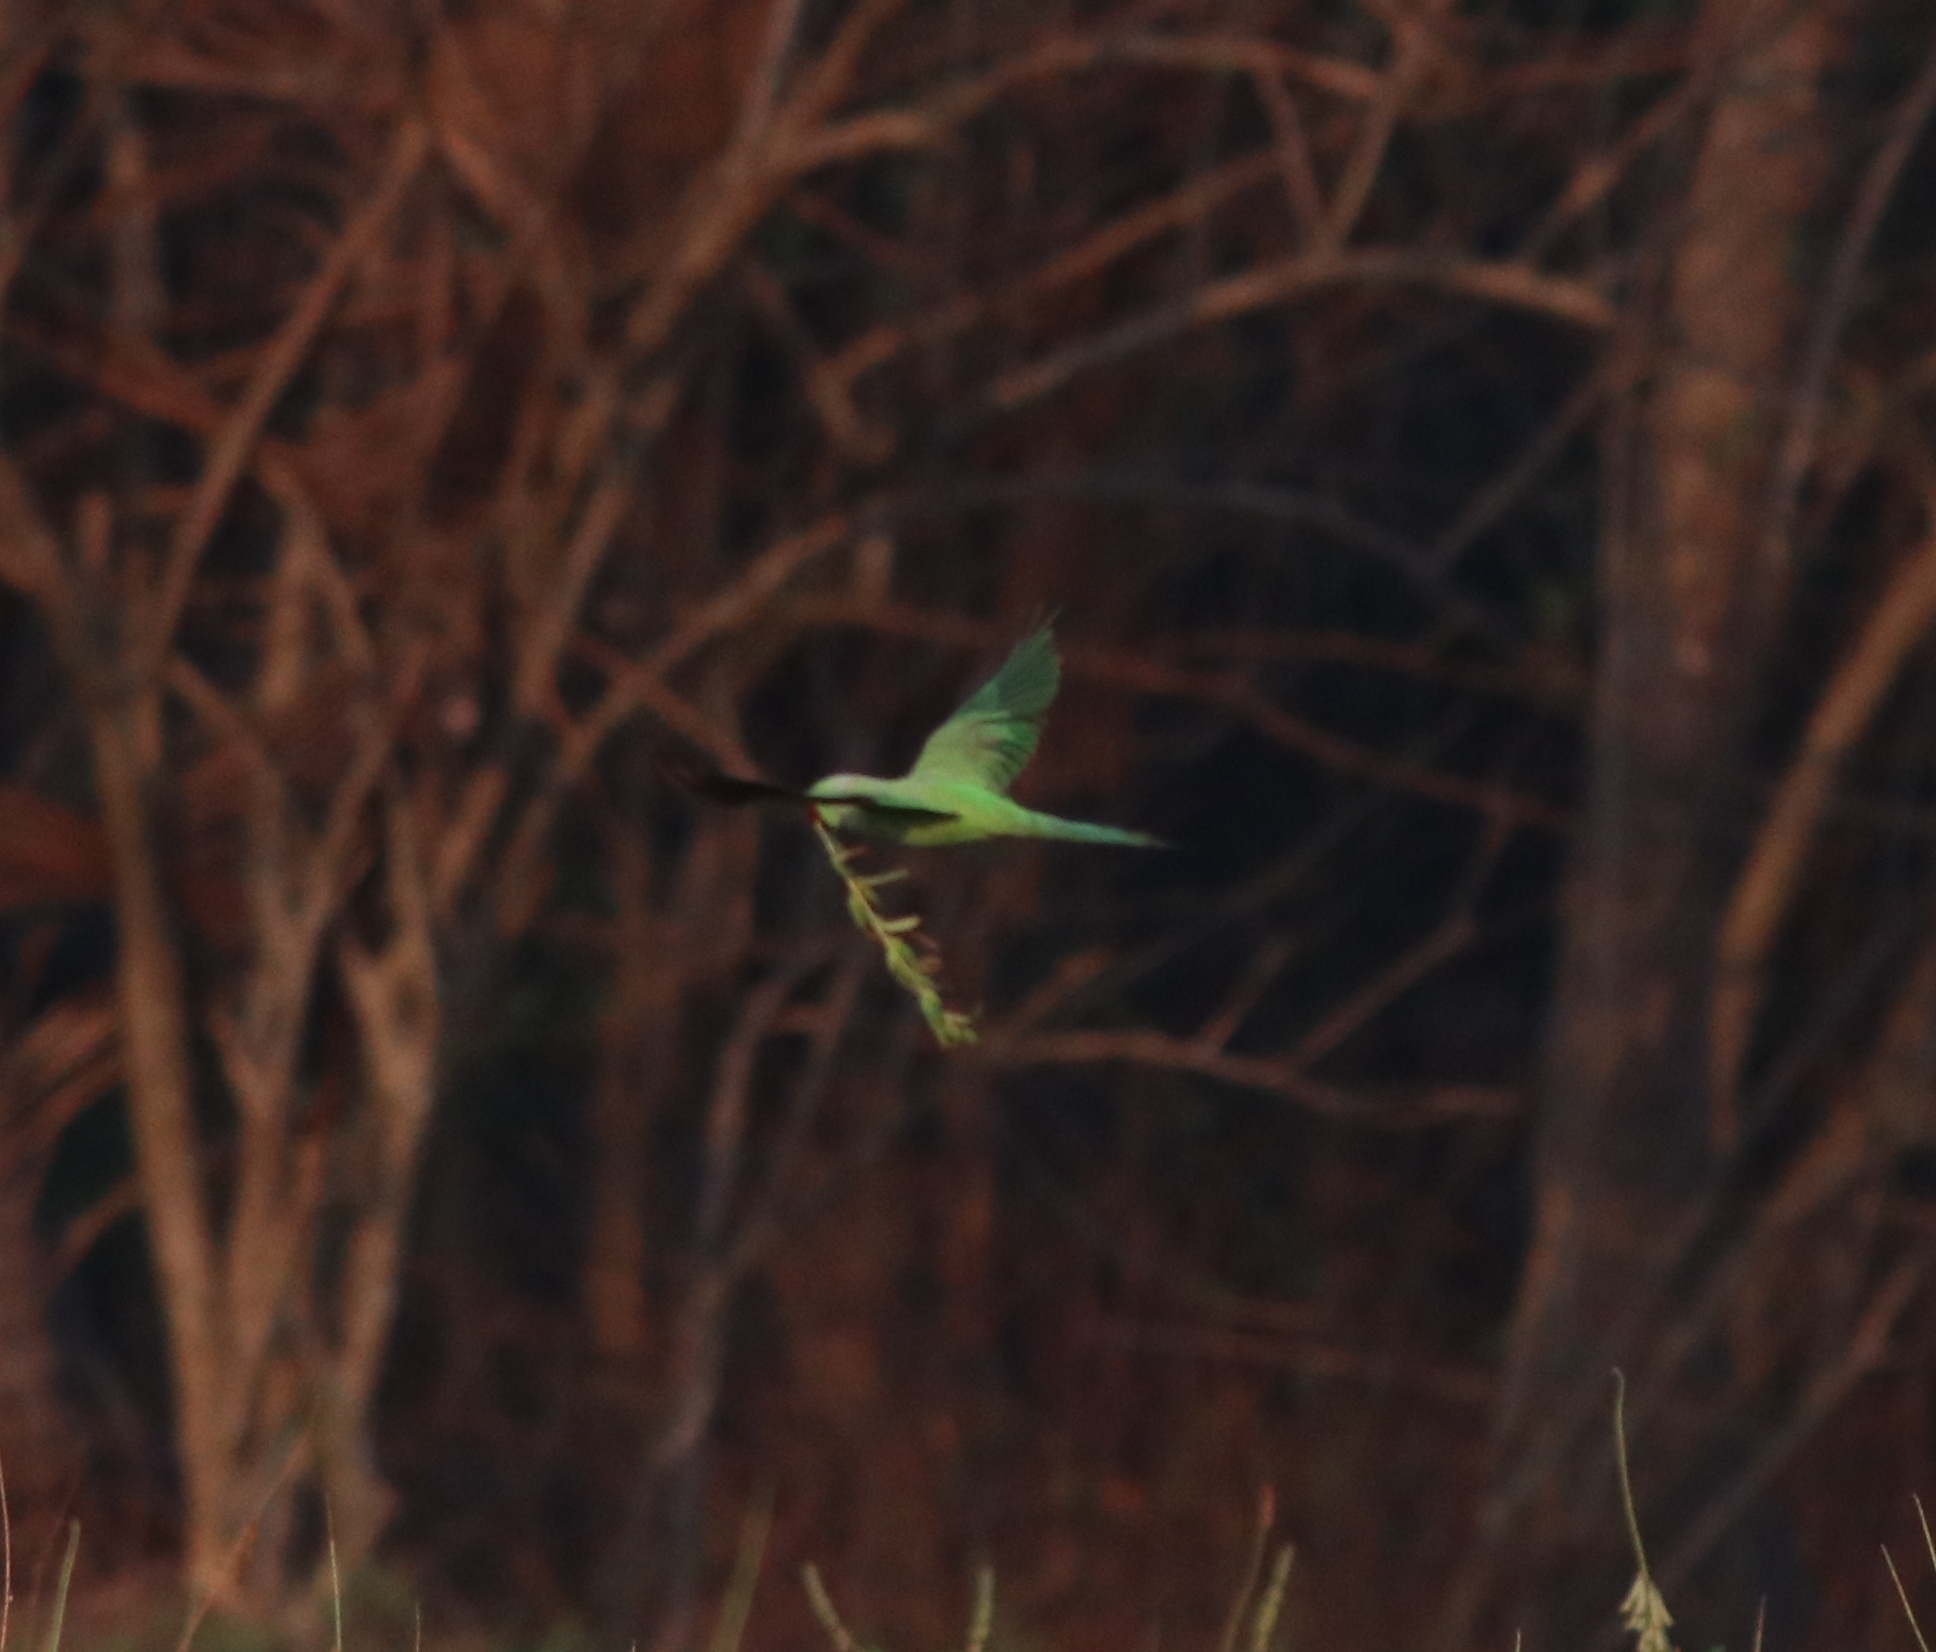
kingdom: Animalia
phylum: Chordata
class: Aves
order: Psittaciformes
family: Psittacidae
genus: Psittacula
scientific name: Psittacula krameri
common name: Rose-ringed parakeet
